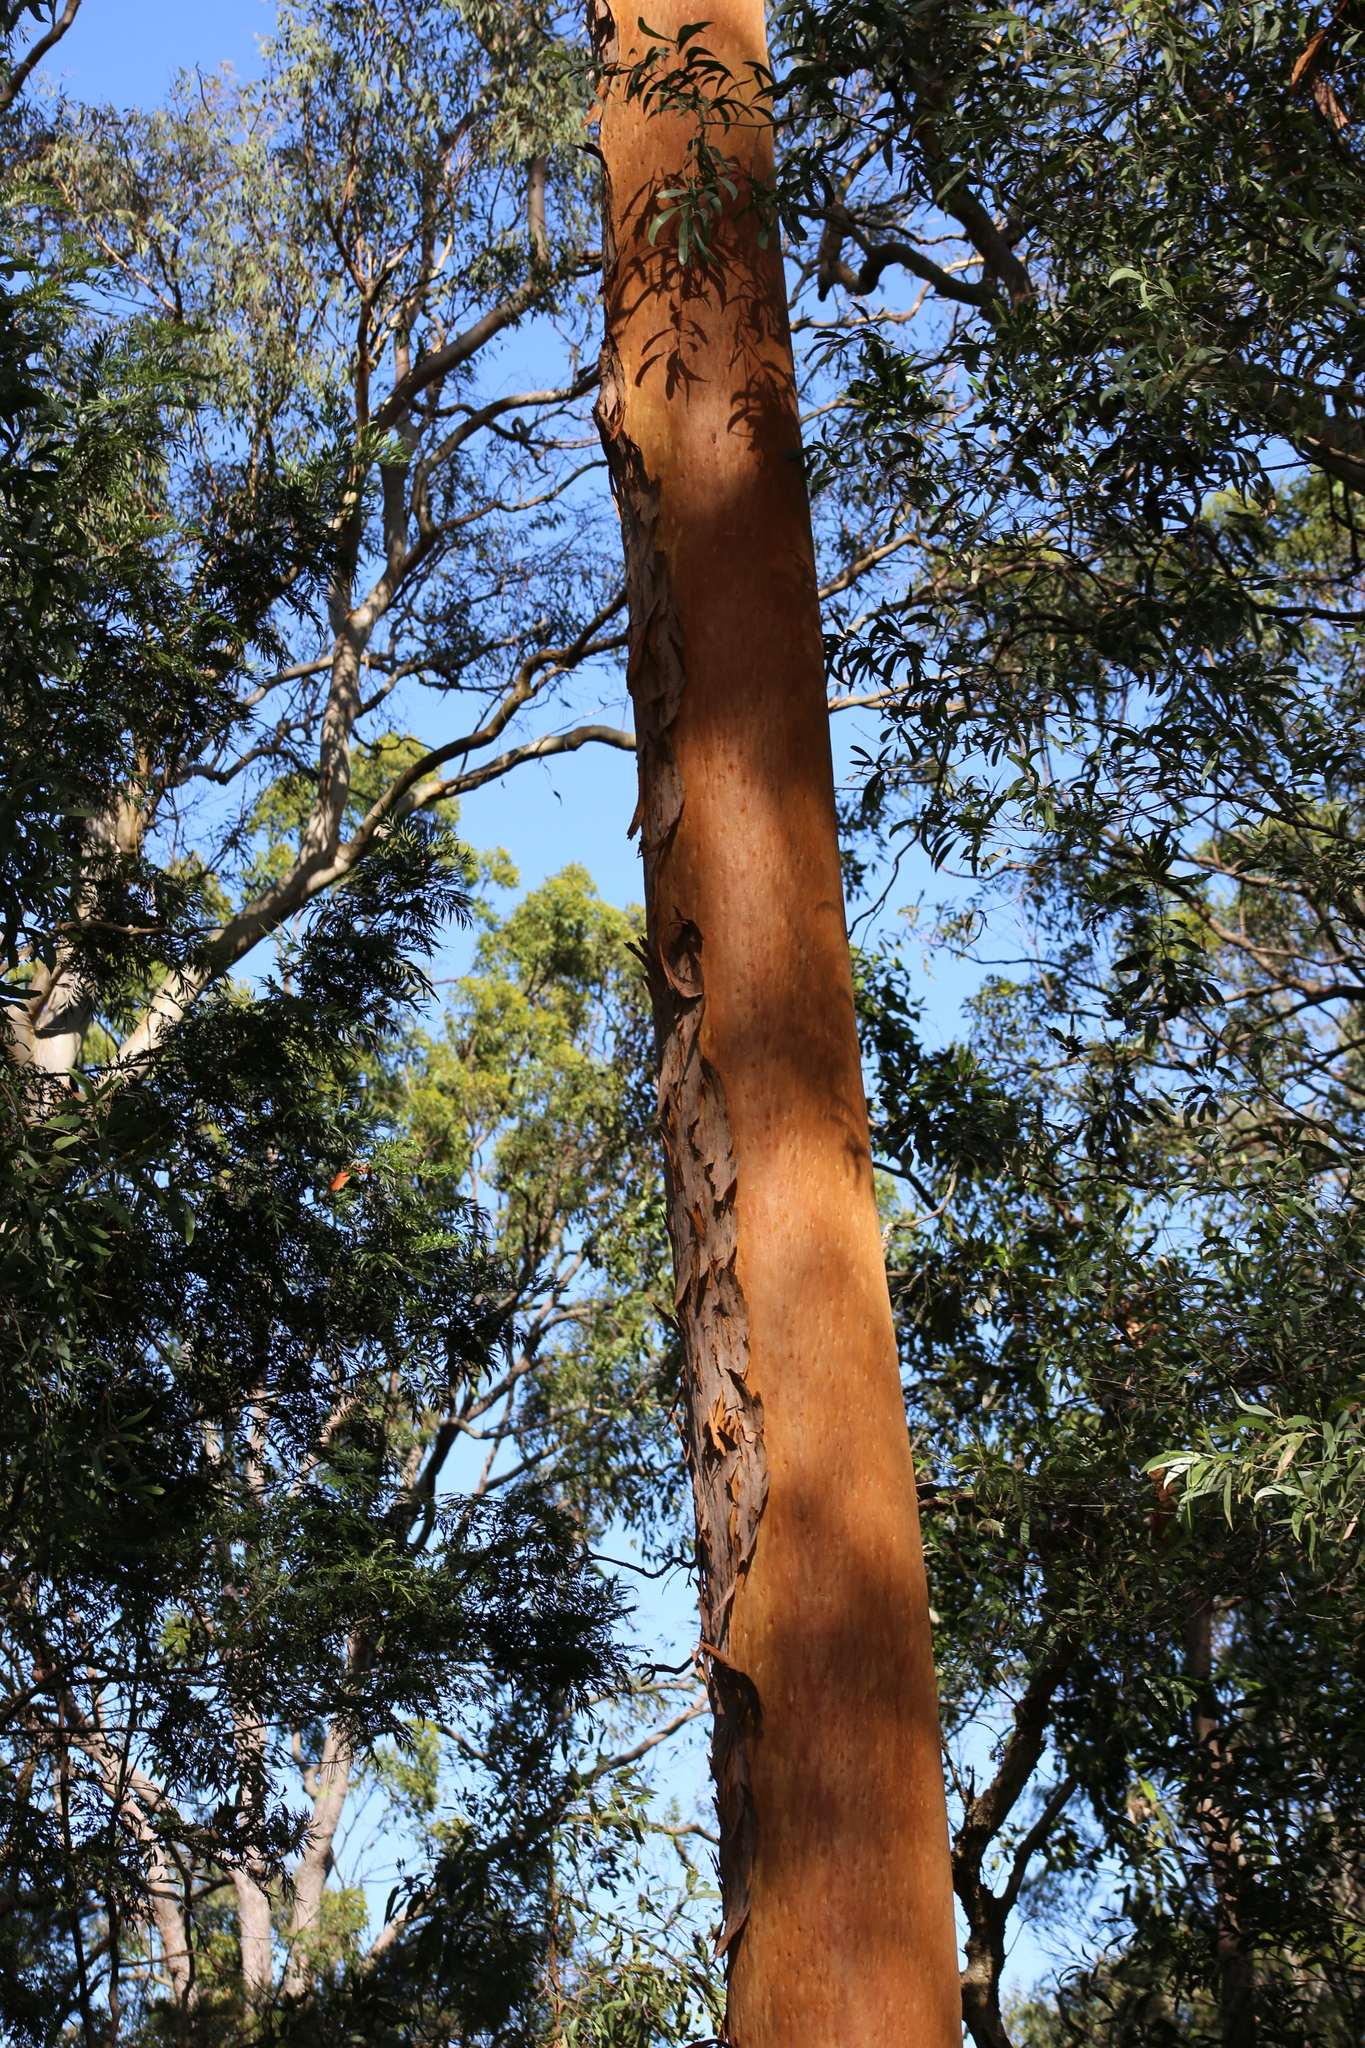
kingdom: Plantae
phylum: Tracheophyta
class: Magnoliopsida
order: Myrtales
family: Myrtaceae
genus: Angophora
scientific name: Angophora leiocarpa
